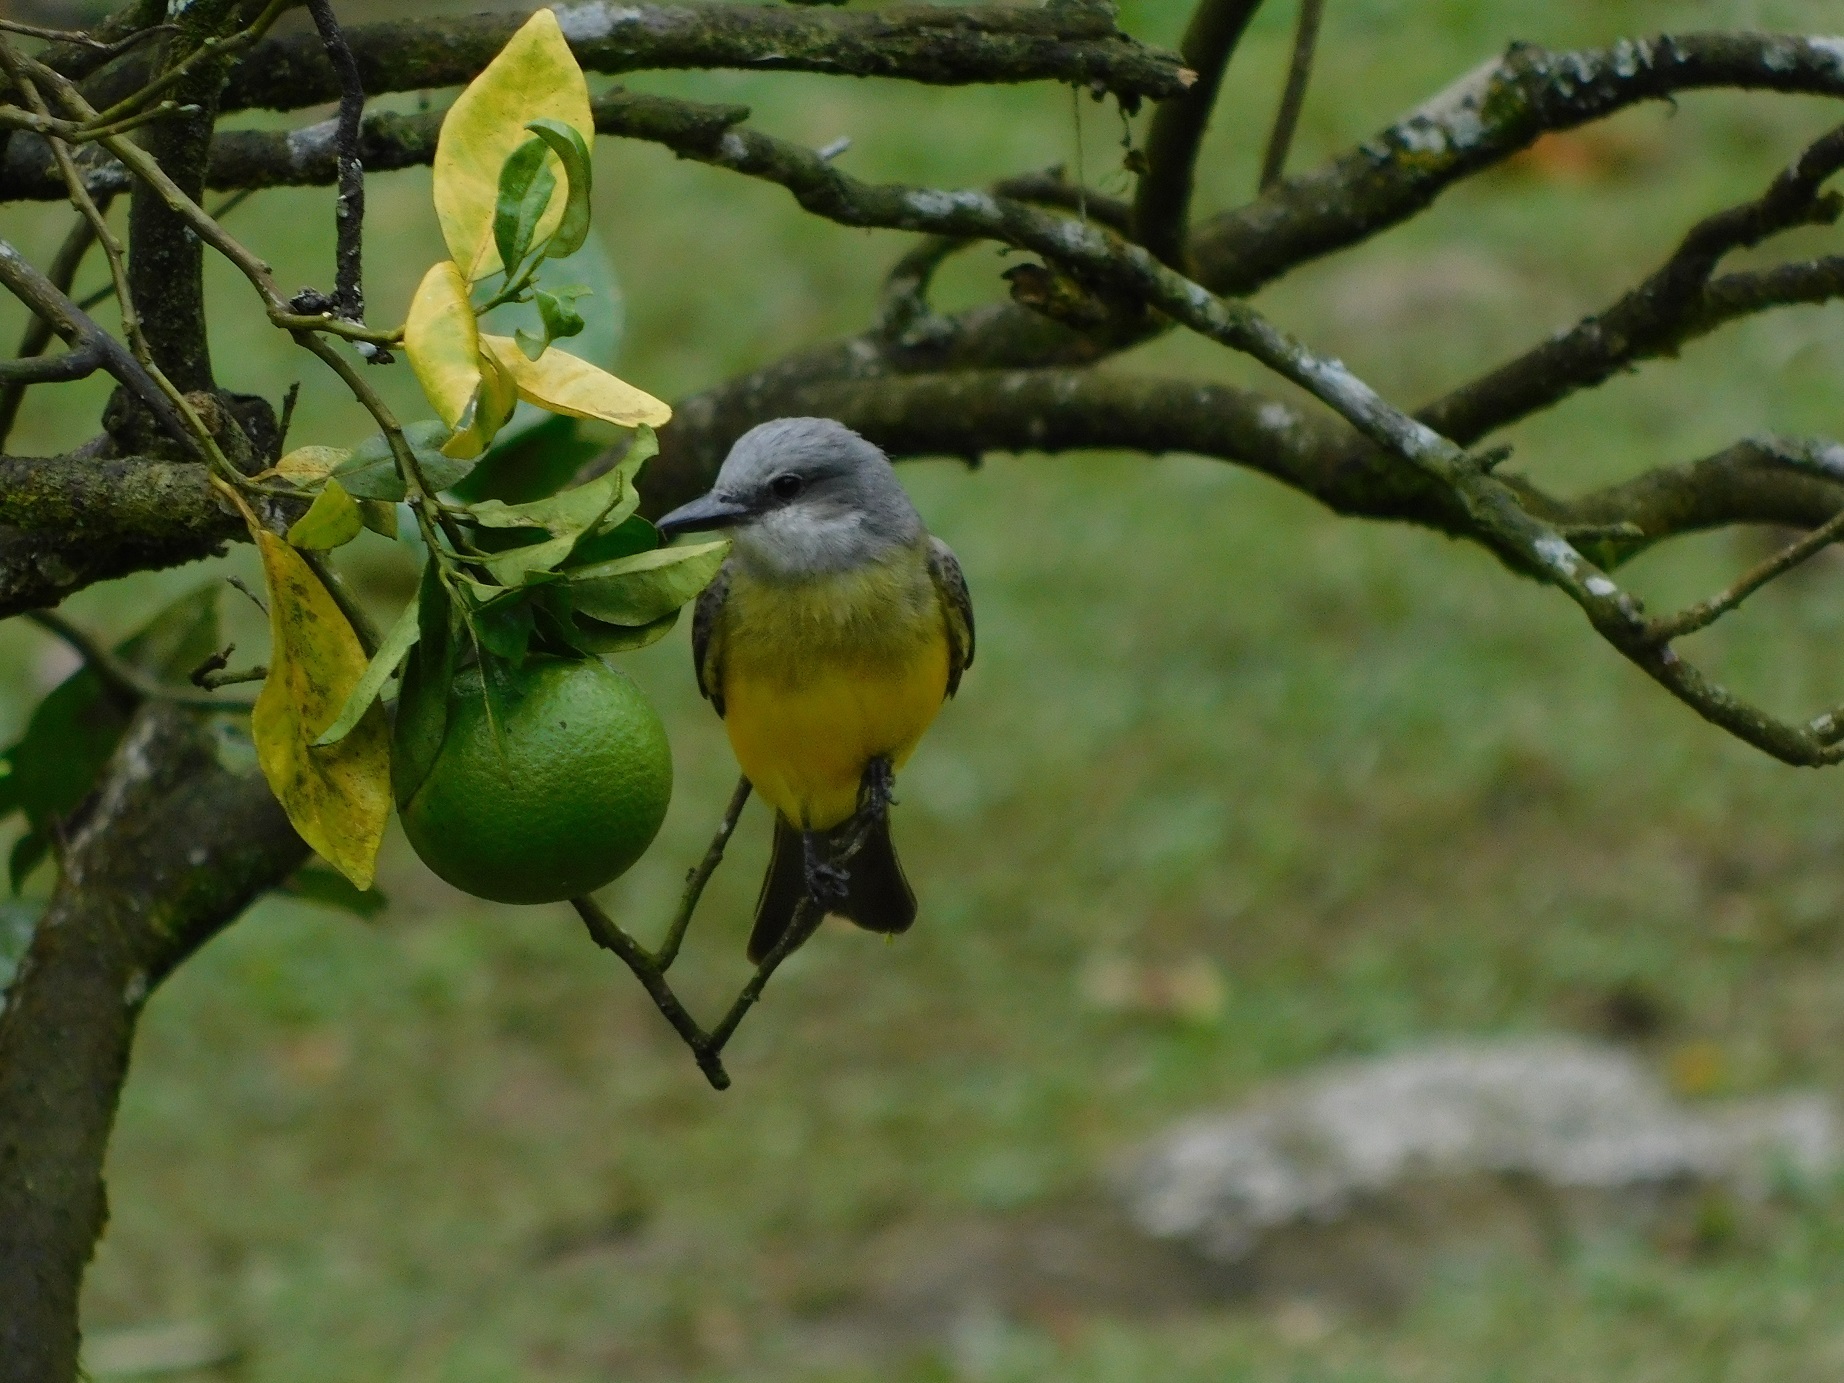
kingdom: Animalia
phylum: Chordata
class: Aves
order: Passeriformes
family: Tyrannidae
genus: Tyrannus
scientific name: Tyrannus melancholicus
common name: Tropical kingbird
